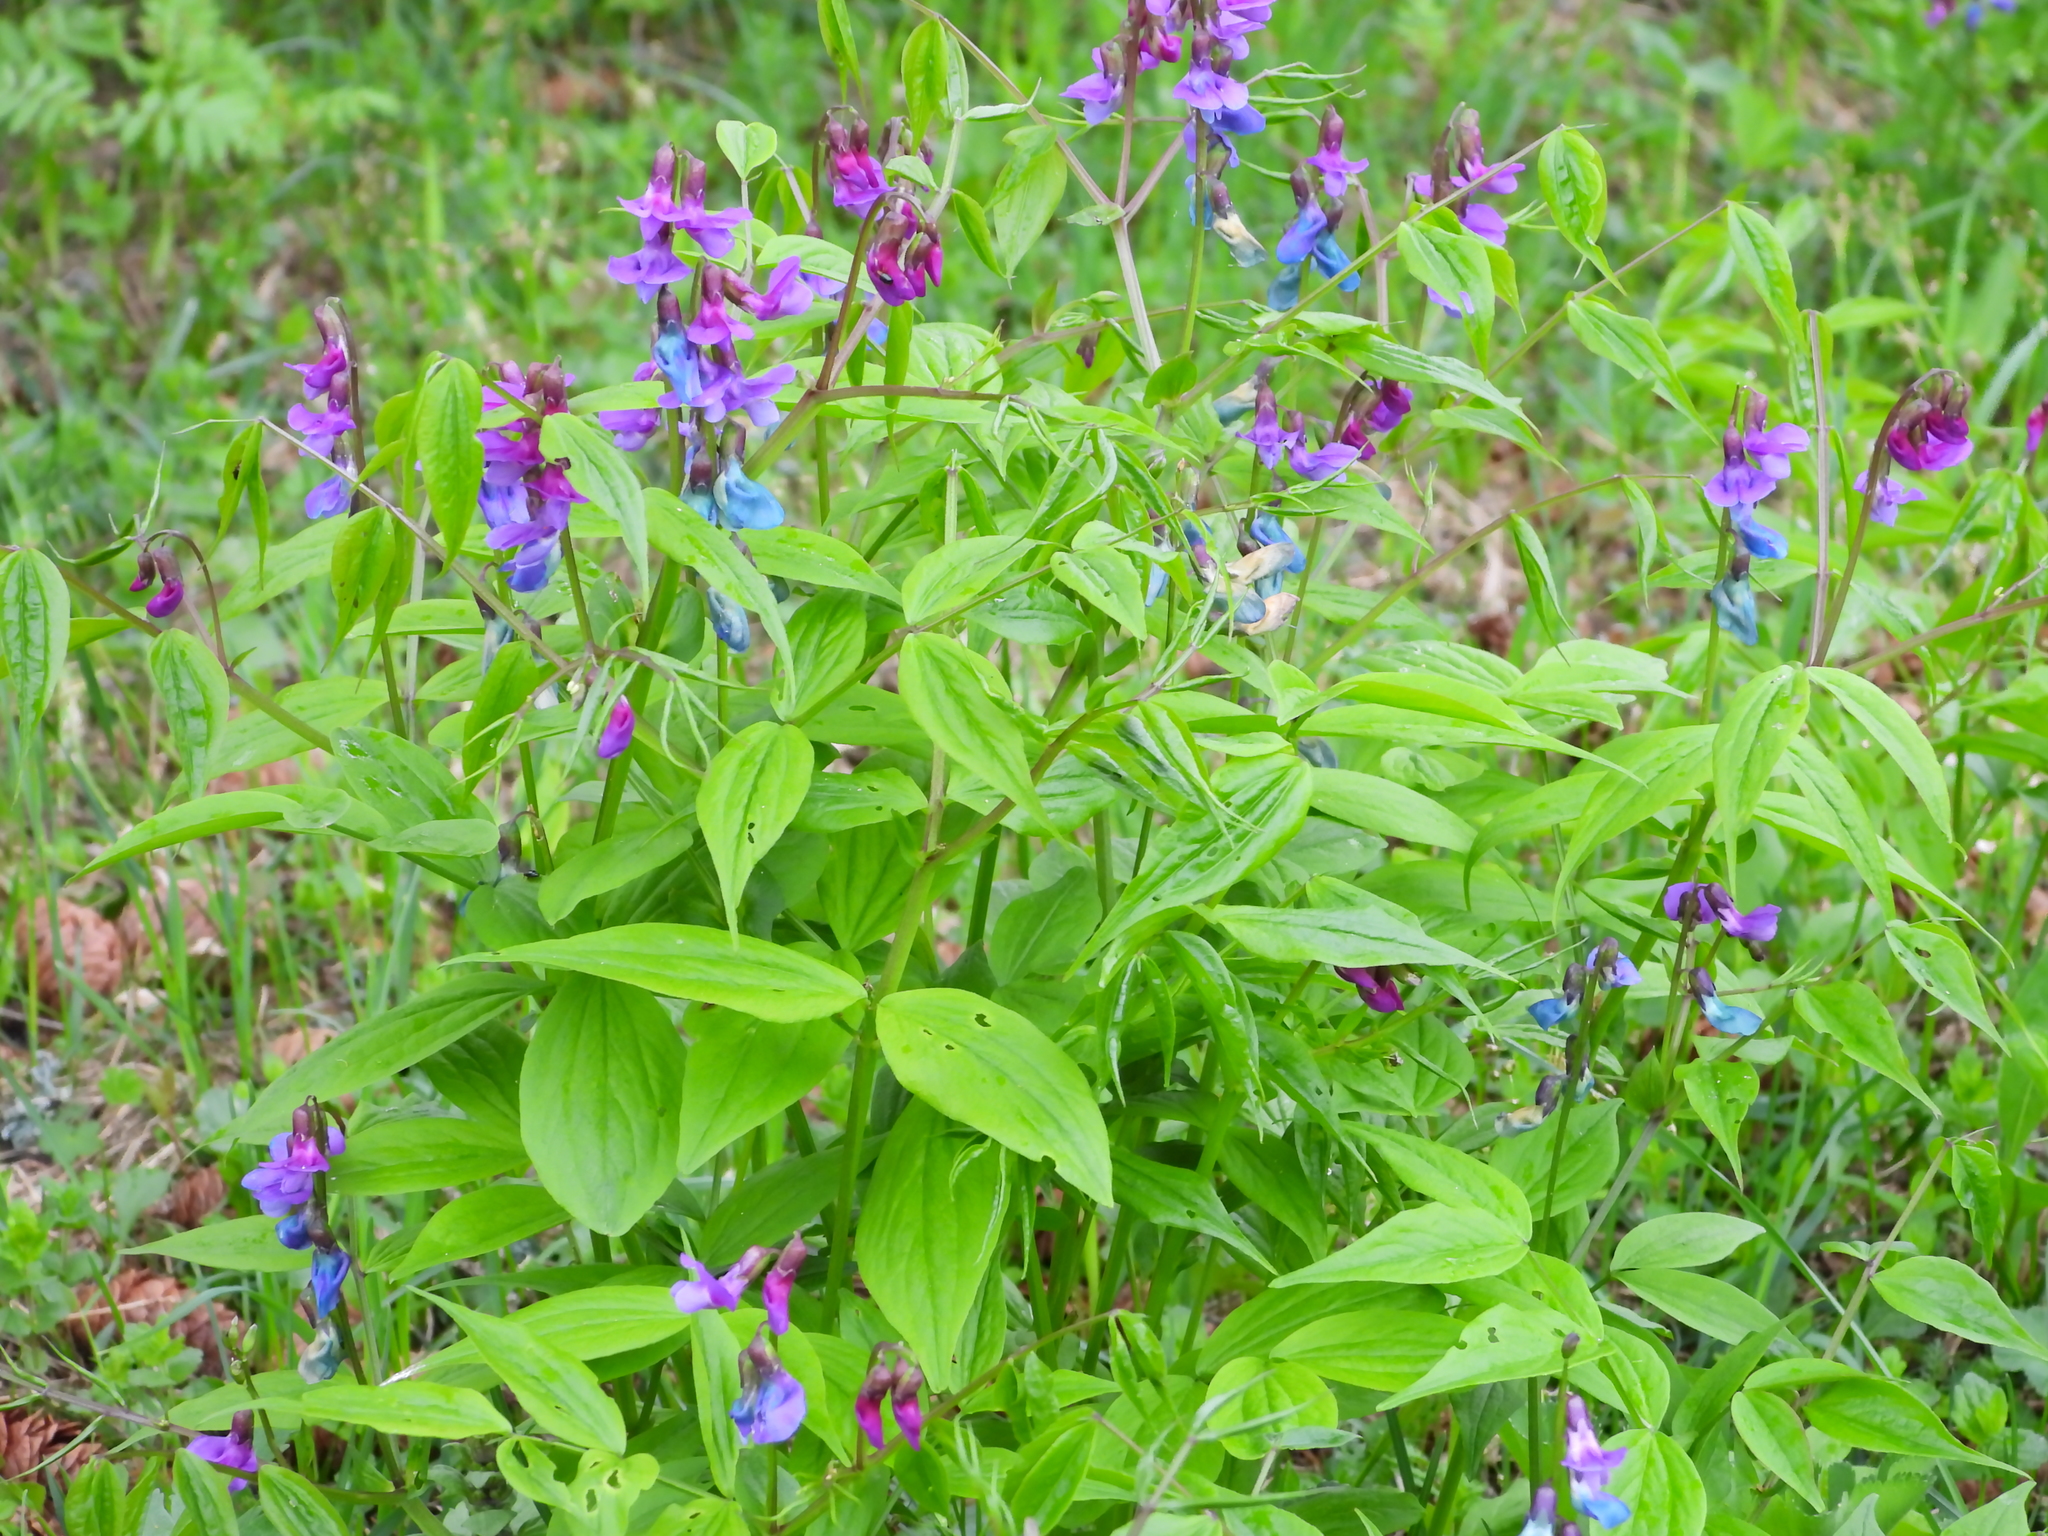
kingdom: Plantae
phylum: Tracheophyta
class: Magnoliopsida
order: Fabales
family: Fabaceae
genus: Lathyrus
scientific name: Lathyrus vernus
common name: Spring pea
